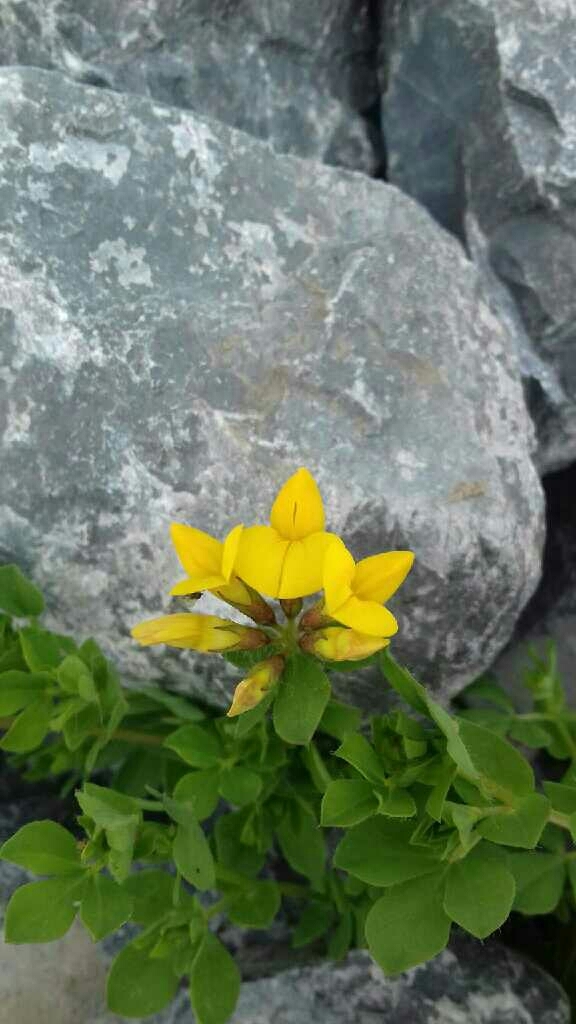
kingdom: Plantae
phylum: Tracheophyta
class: Magnoliopsida
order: Fabales
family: Fabaceae
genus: Lotus
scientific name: Lotus corniculatus
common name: Common bird's-foot-trefoil
